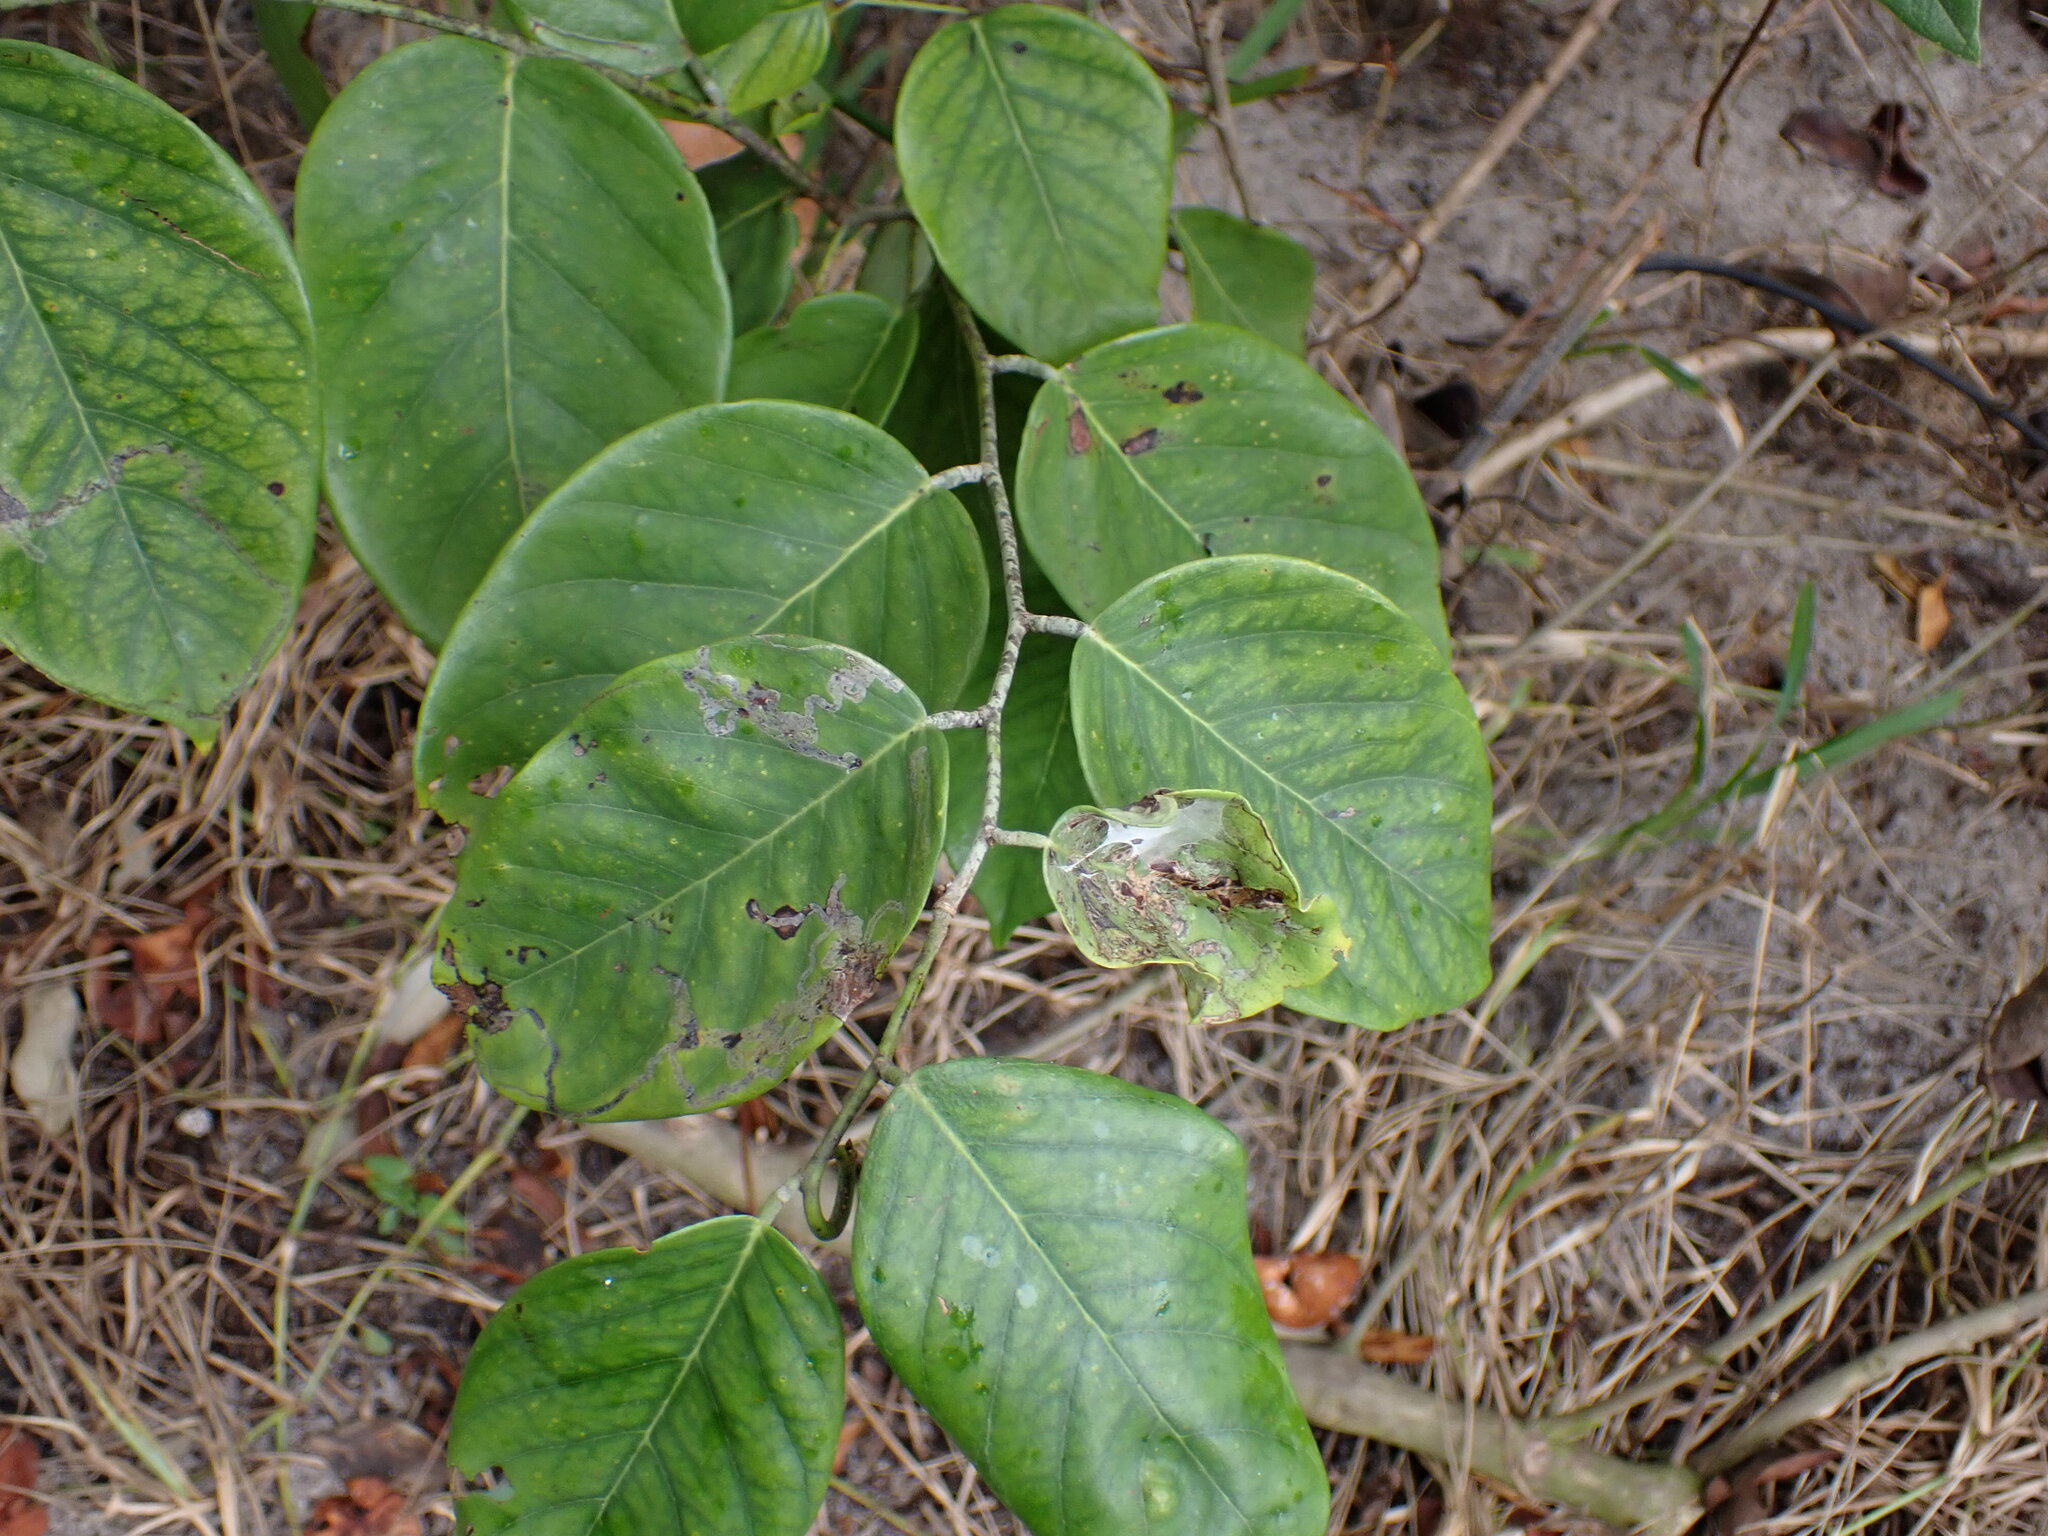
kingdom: Plantae
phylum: Tracheophyta
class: Magnoliopsida
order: Fabales
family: Fabaceae
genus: Dalbergia
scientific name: Dalbergia ecastaphyllum
